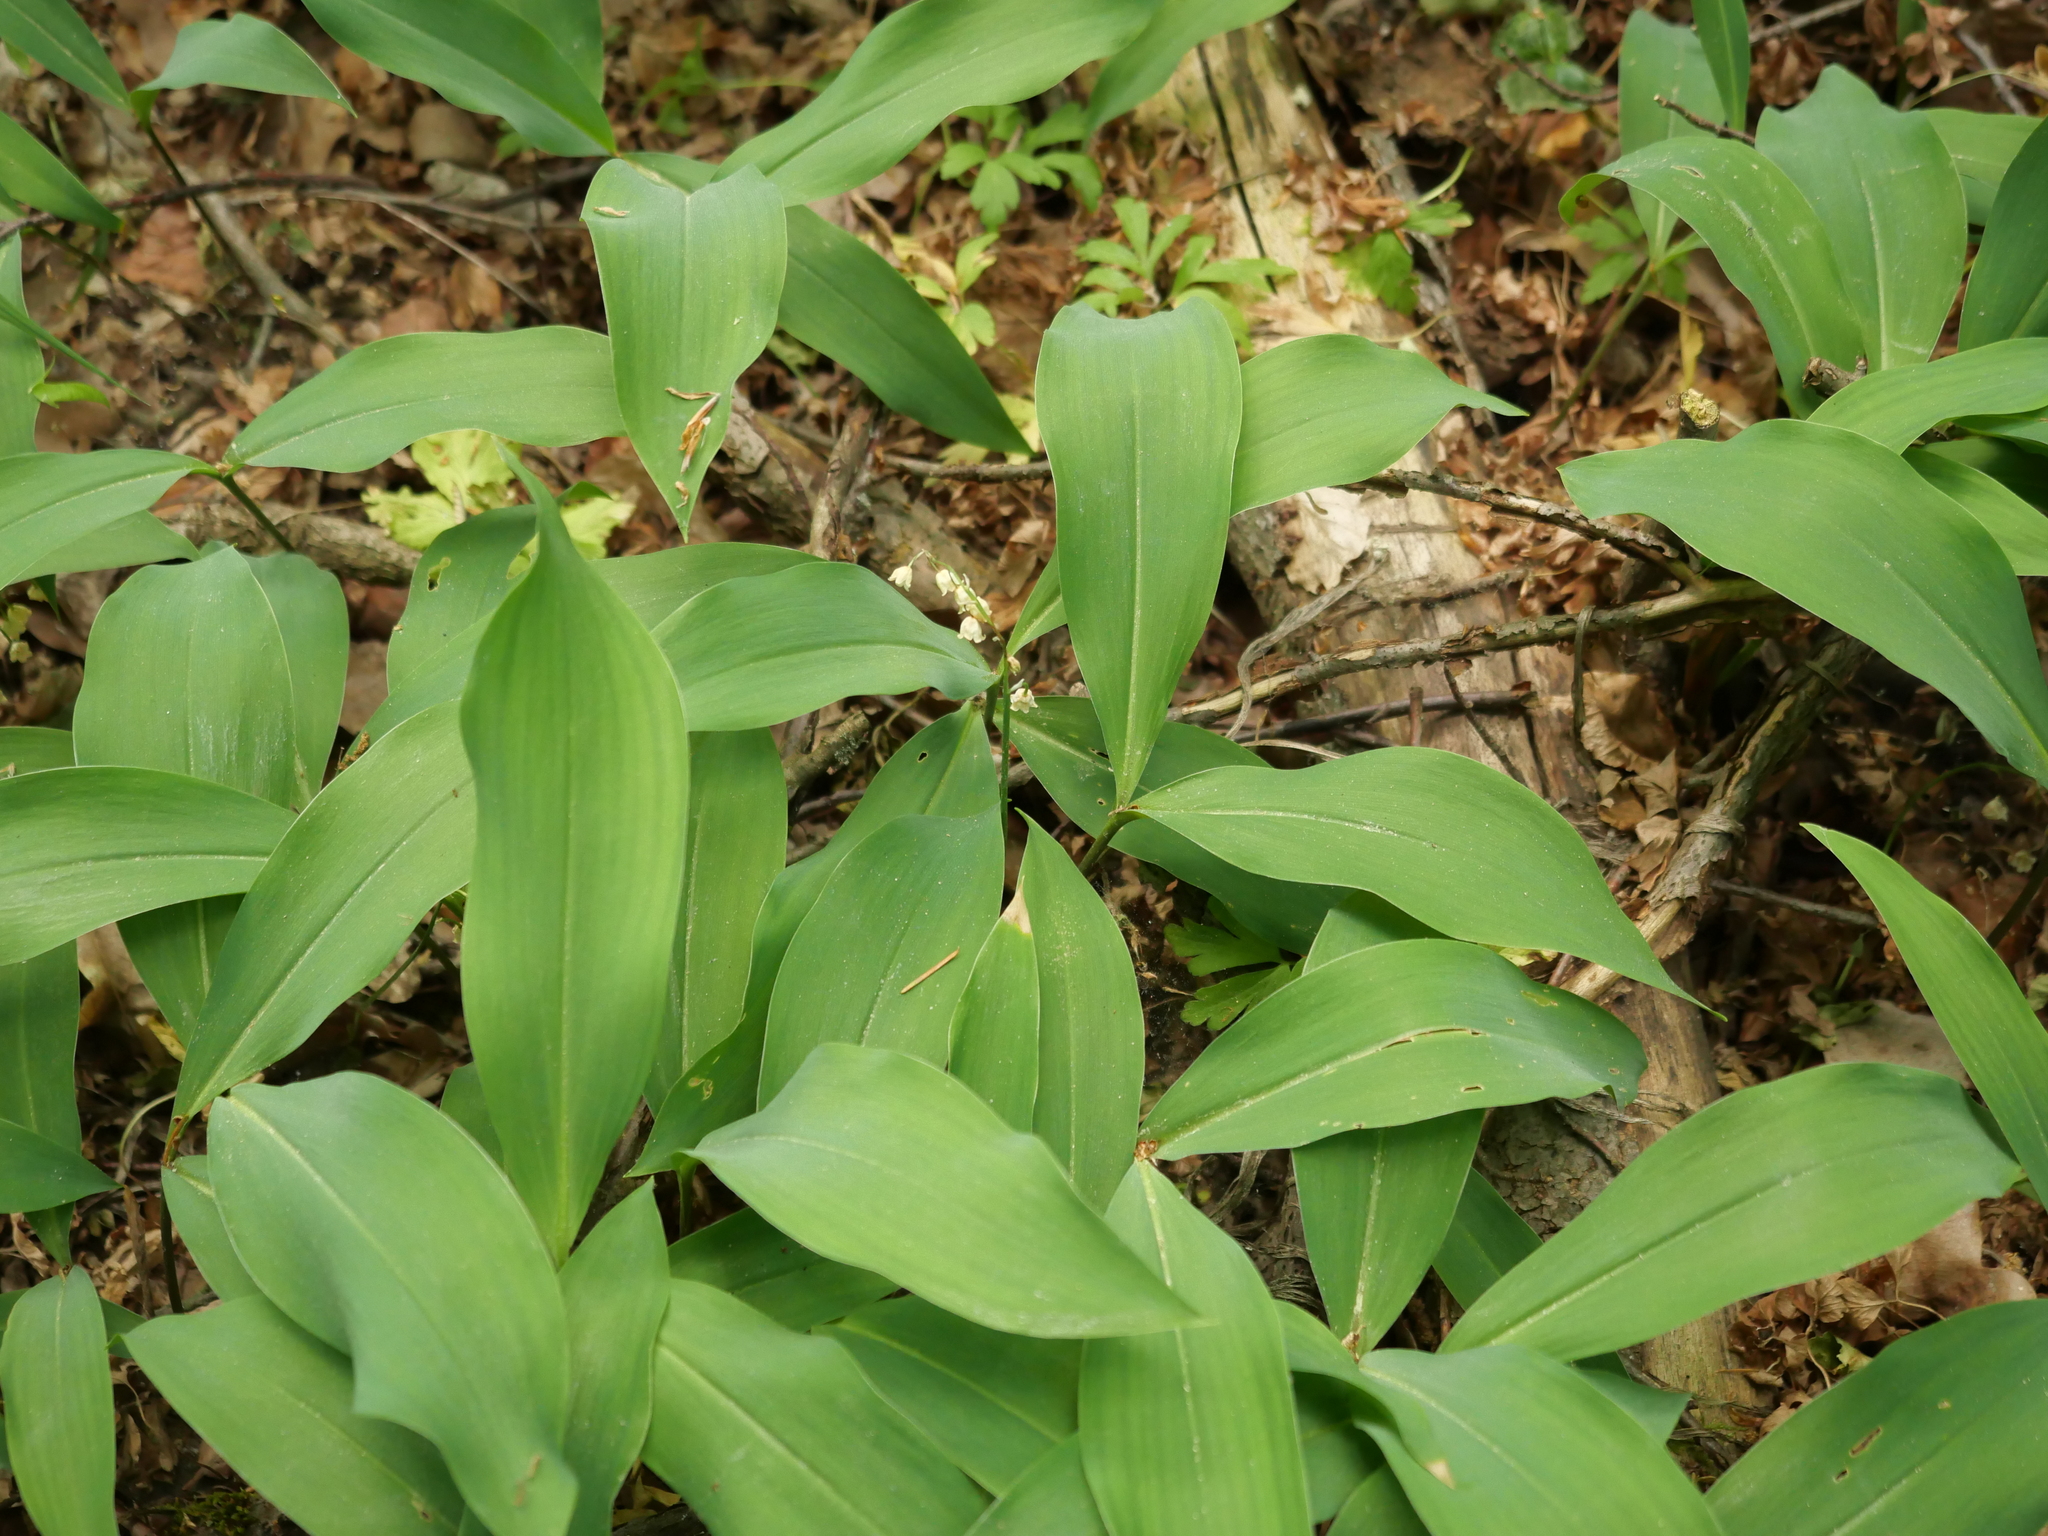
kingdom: Plantae
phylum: Tracheophyta
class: Liliopsida
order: Asparagales
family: Asparagaceae
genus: Convallaria
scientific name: Convallaria majalis
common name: Lily-of-the-valley
